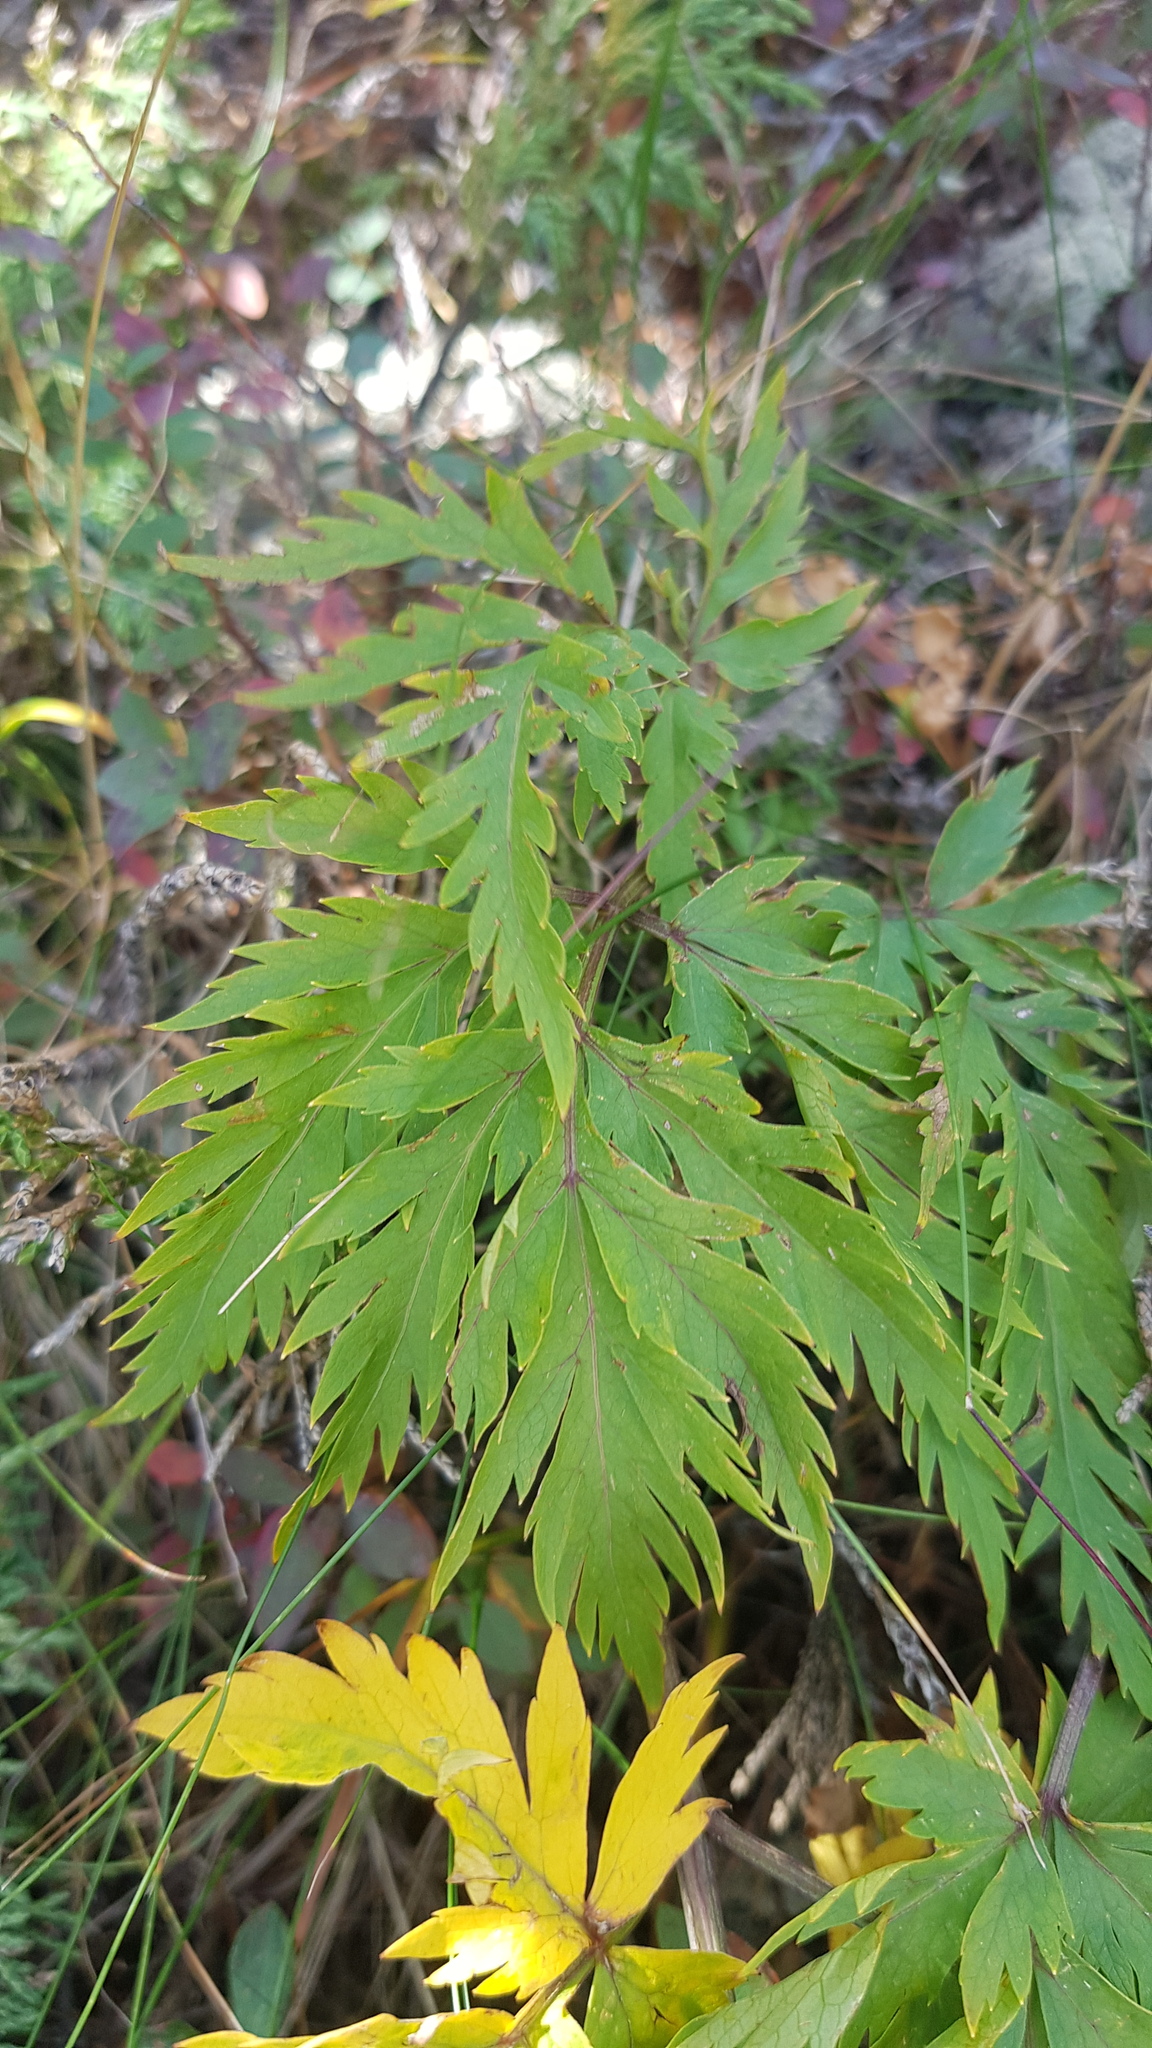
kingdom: Plantae
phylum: Tracheophyta
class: Magnoliopsida
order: Apiales
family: Apiaceae
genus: Pleurospermum
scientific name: Pleurospermum uralense
